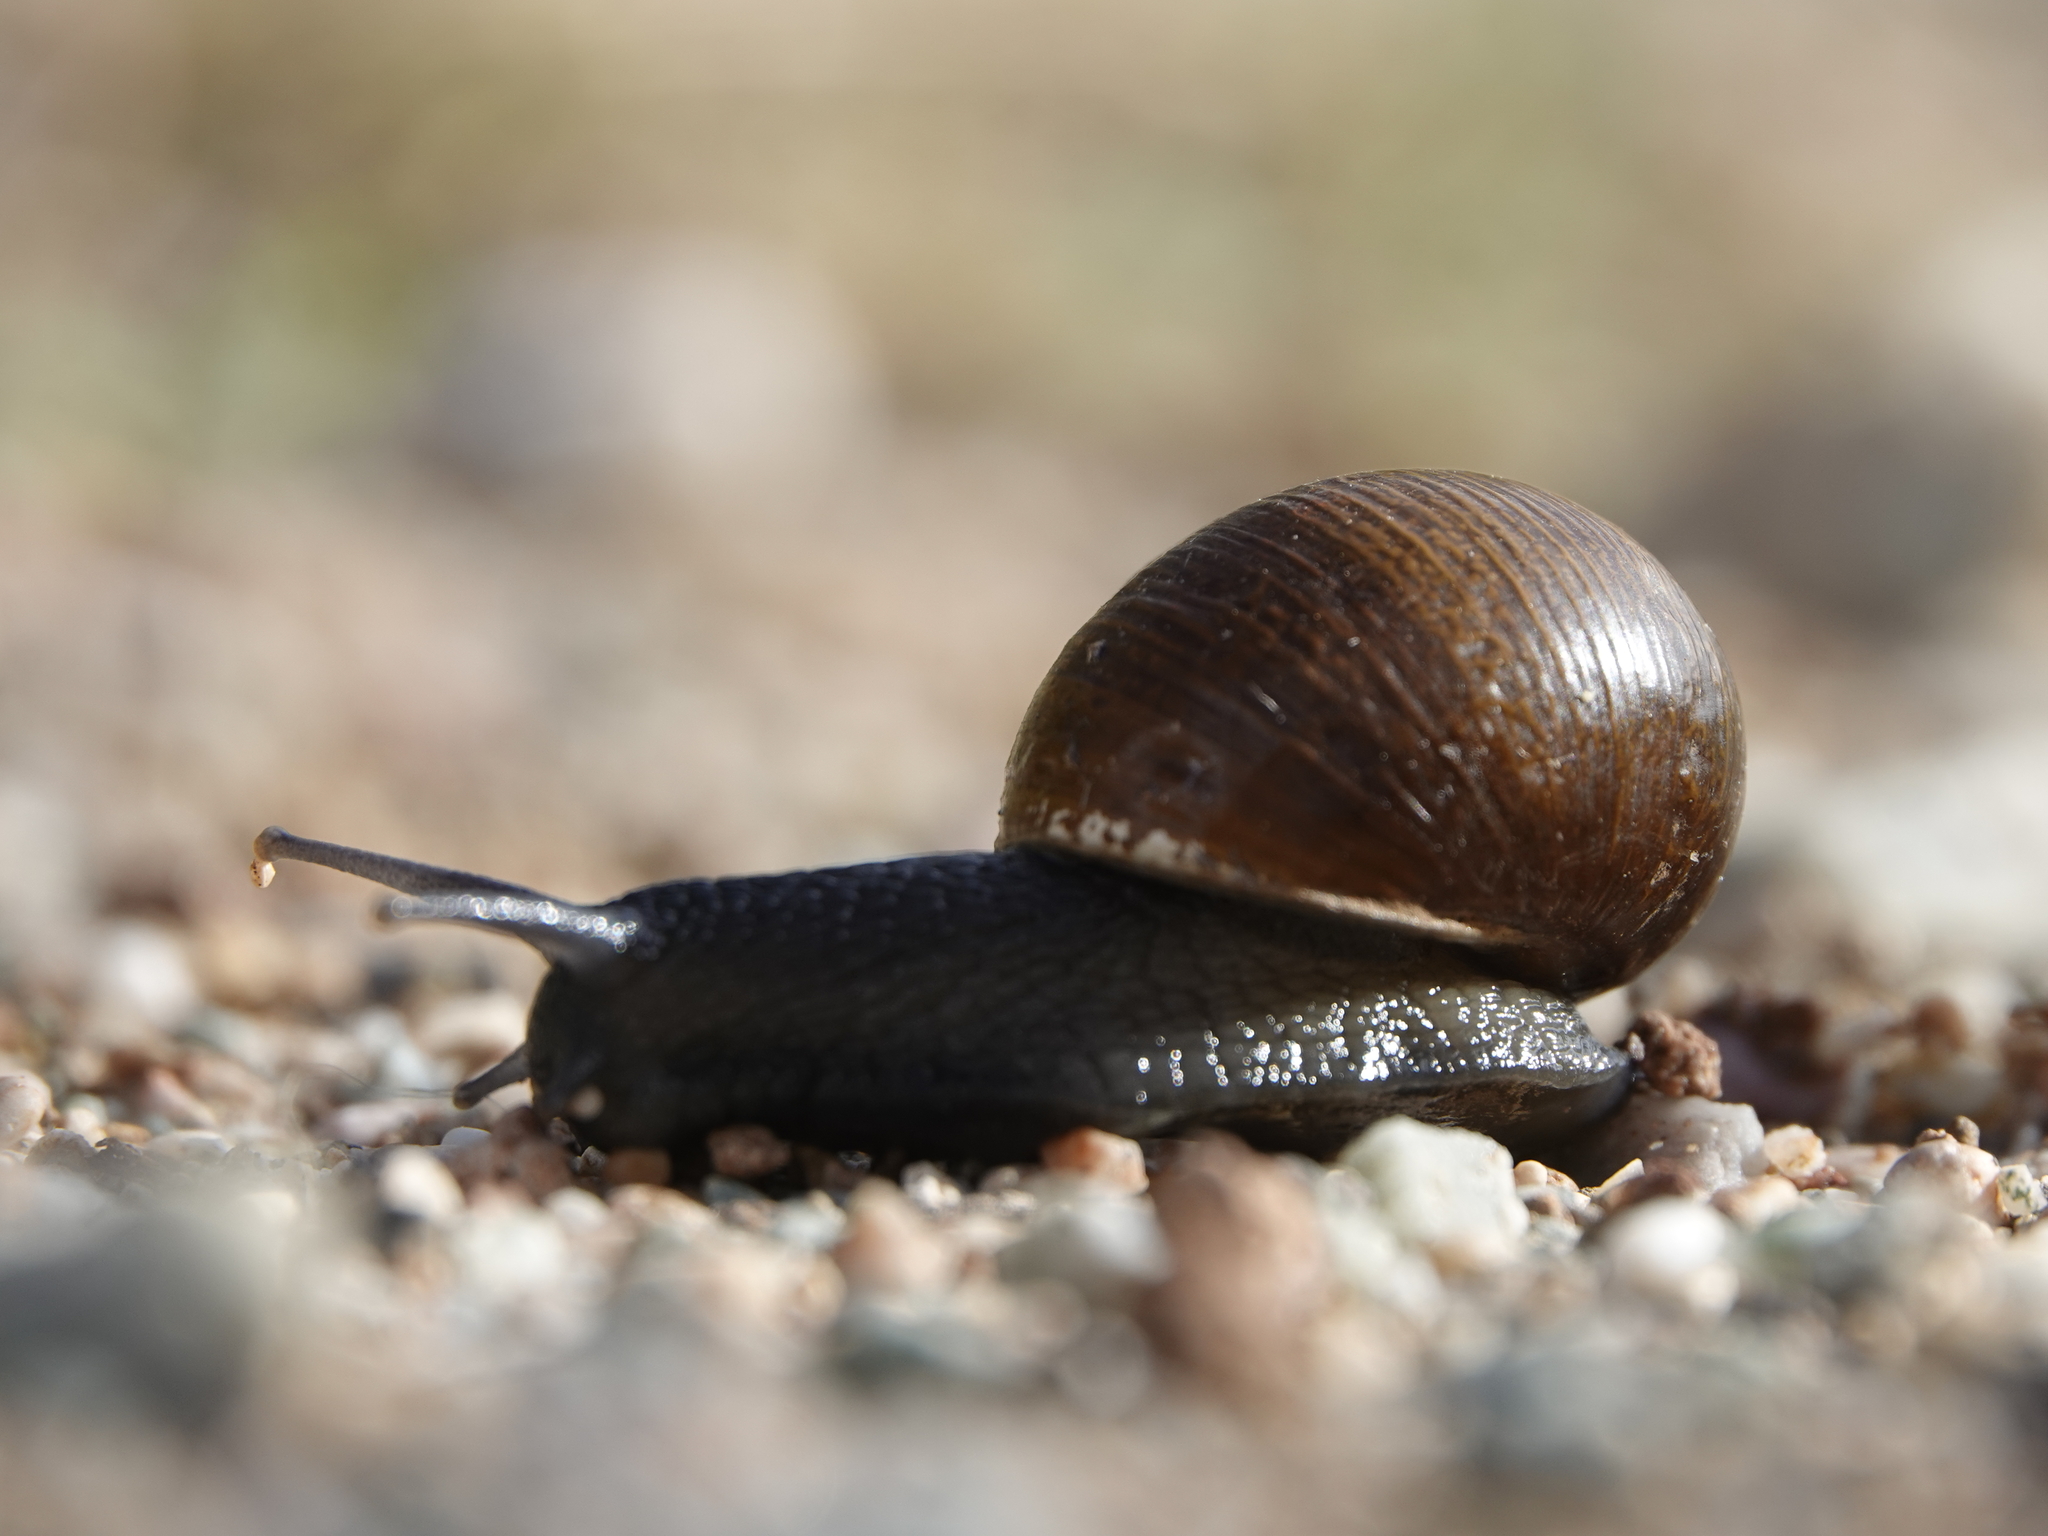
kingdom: Animalia
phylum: Mollusca
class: Gastropoda
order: Stylommatophora
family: Helicidae
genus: Cantareus
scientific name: Cantareus apertus
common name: Green gardensnail
